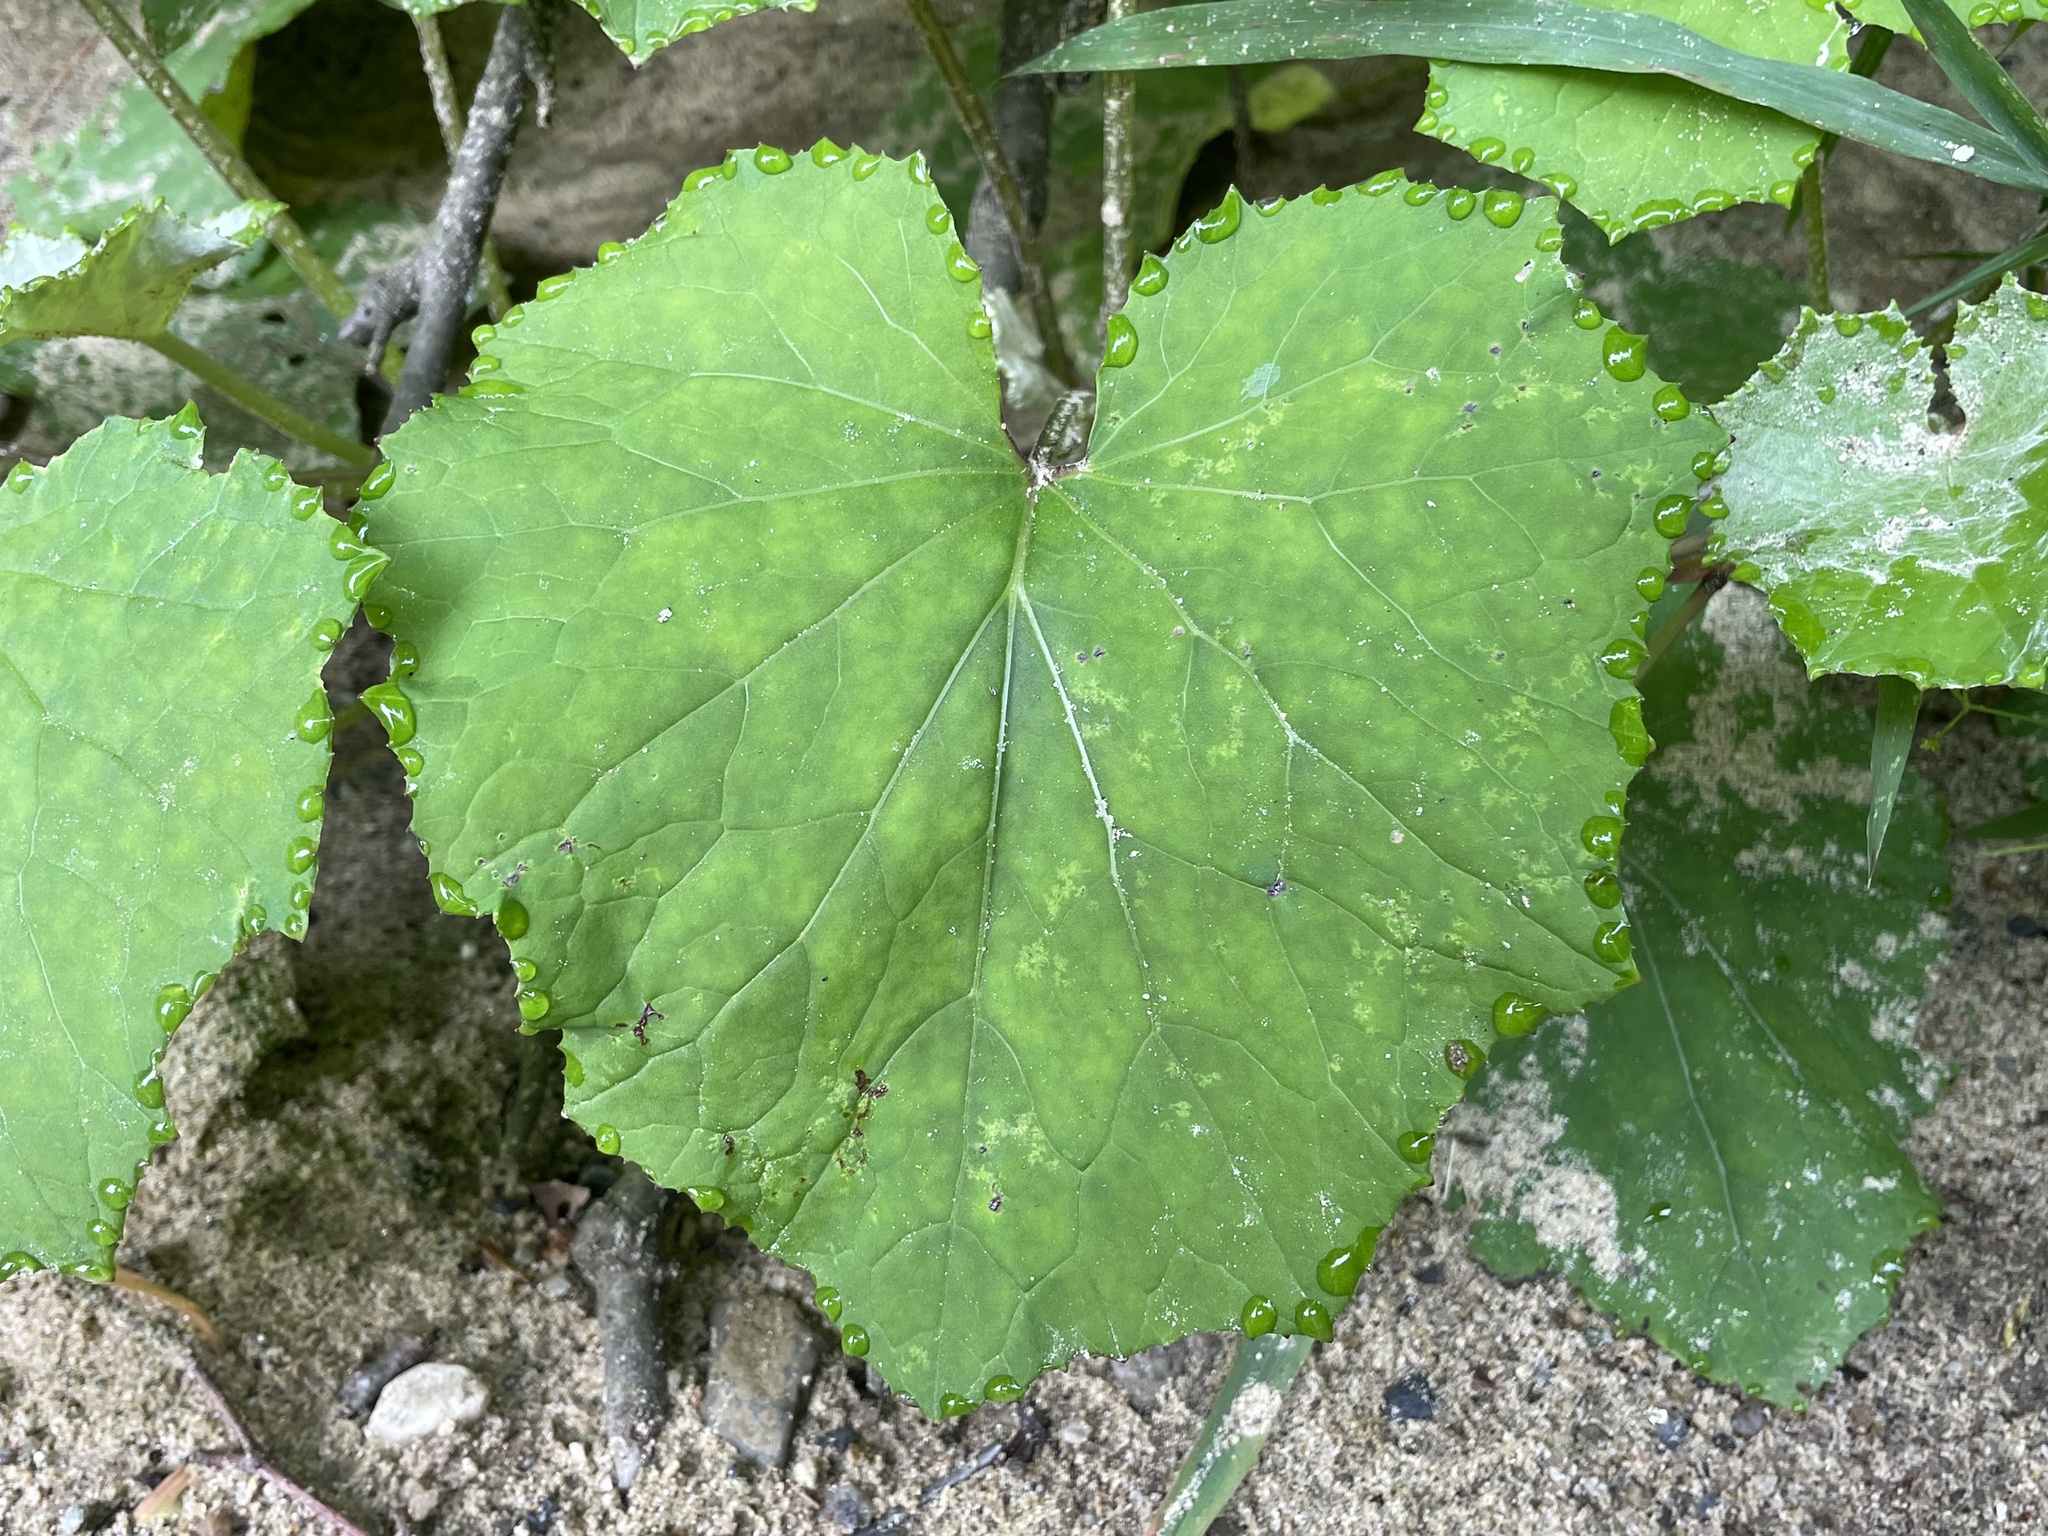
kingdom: Plantae
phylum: Tracheophyta
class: Magnoliopsida
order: Asterales
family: Asteraceae
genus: Tussilago
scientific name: Tussilago farfara
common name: Coltsfoot
